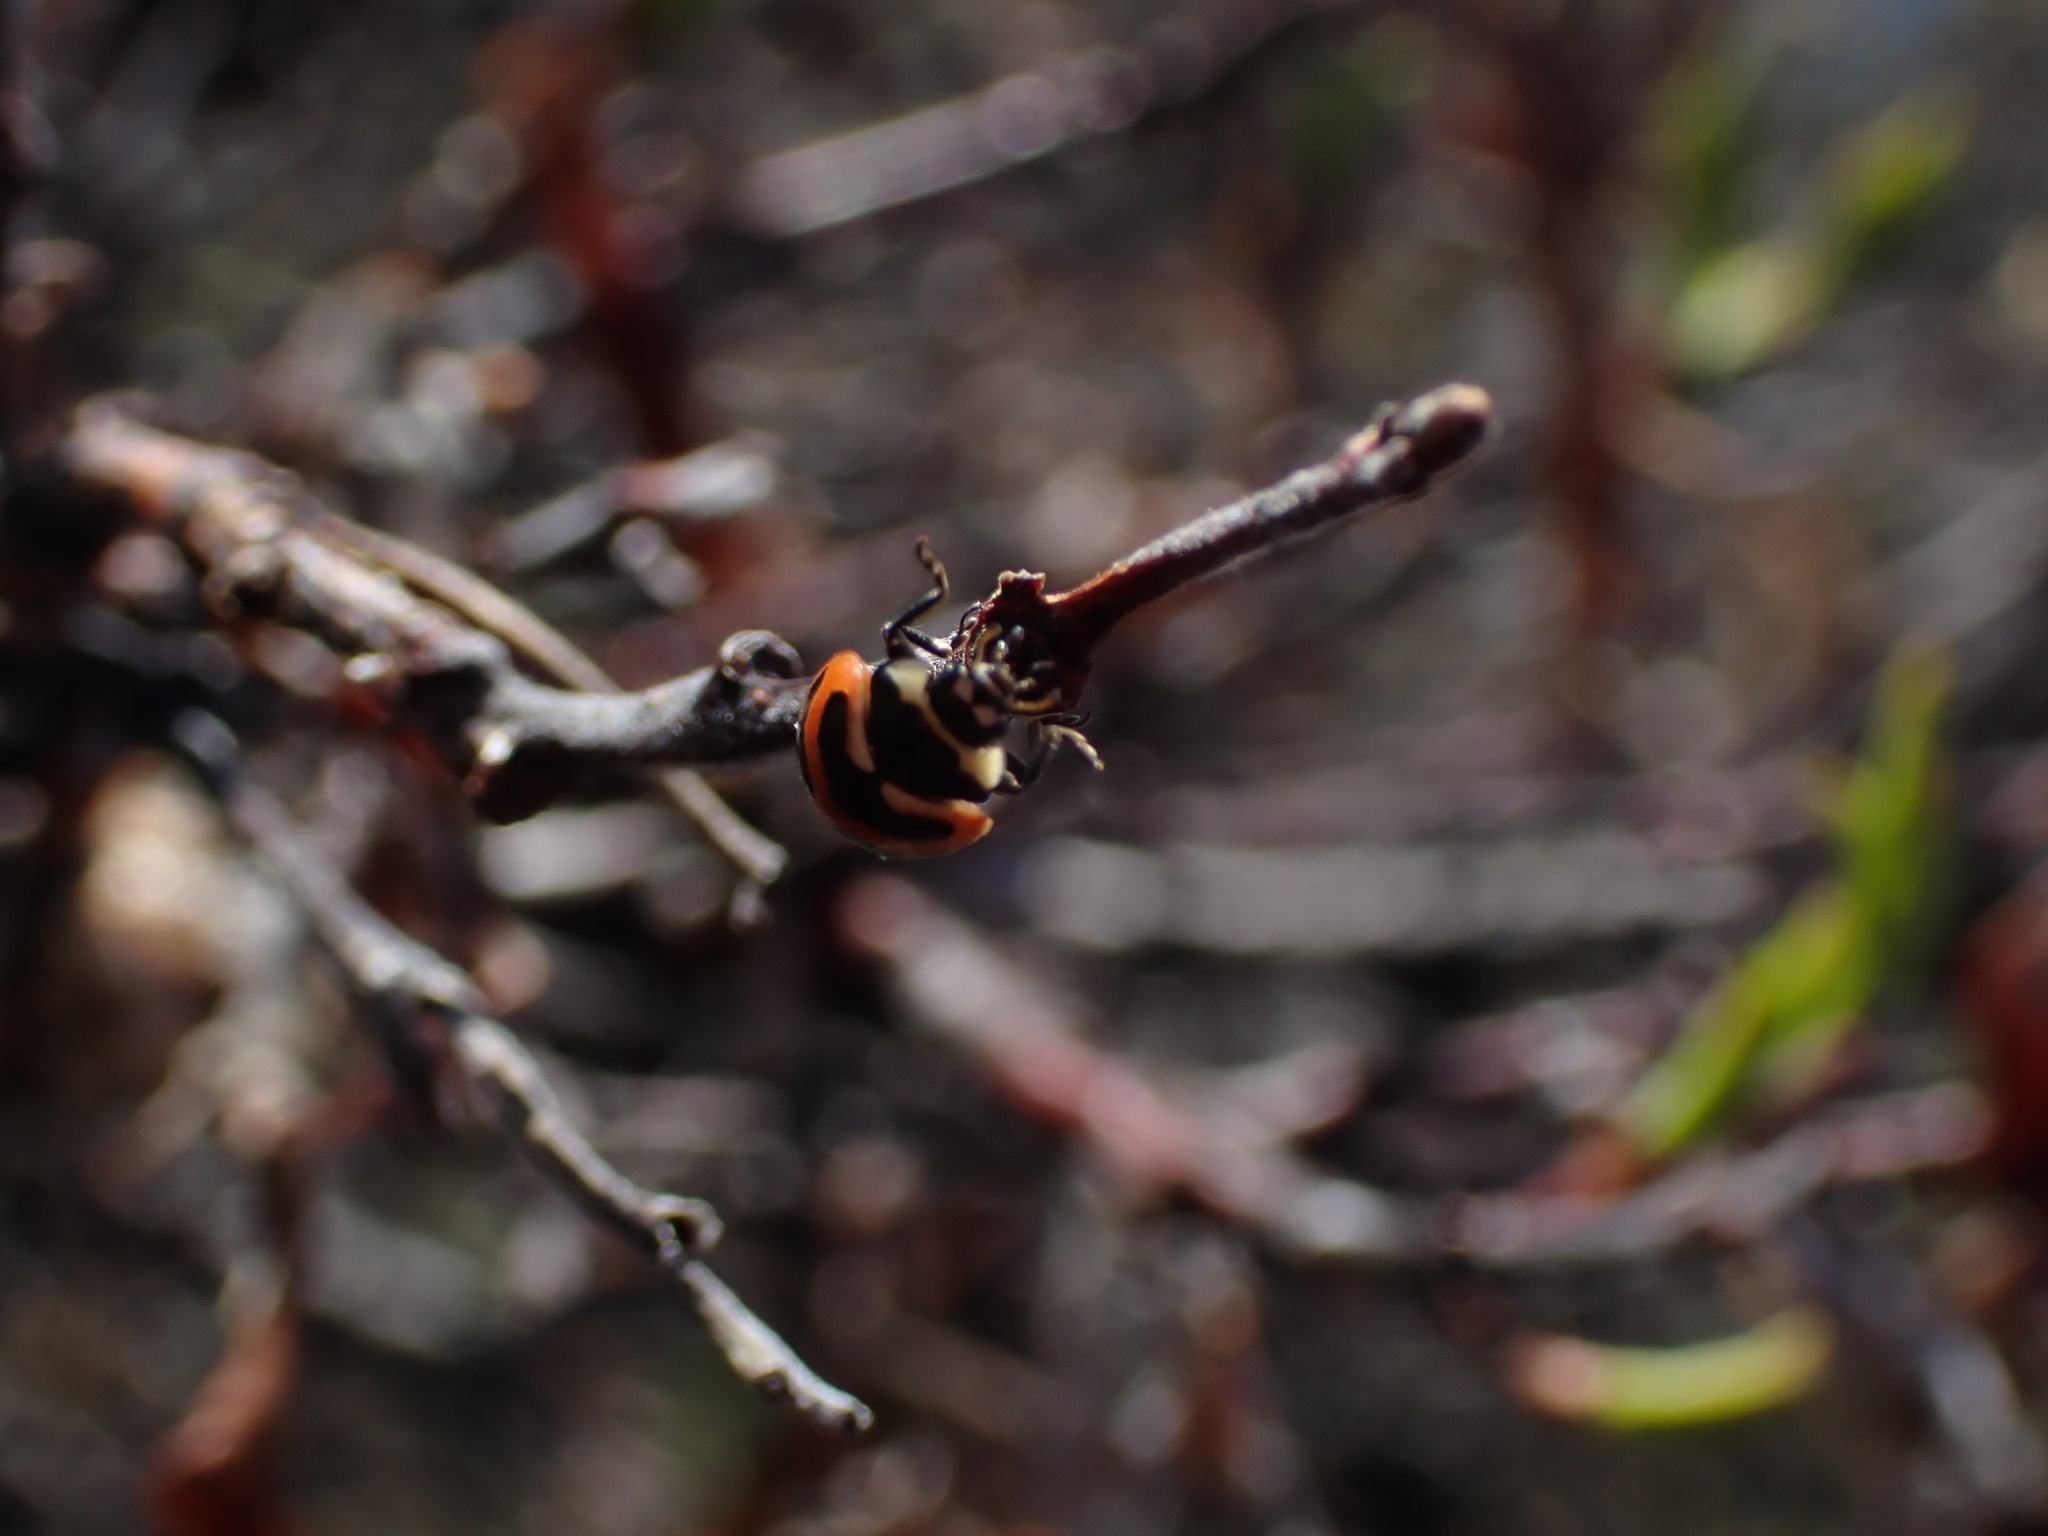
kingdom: Animalia
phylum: Arthropoda
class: Insecta
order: Coleoptera
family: Coccinellidae
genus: Coccinella
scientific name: Coccinella trifasciata
